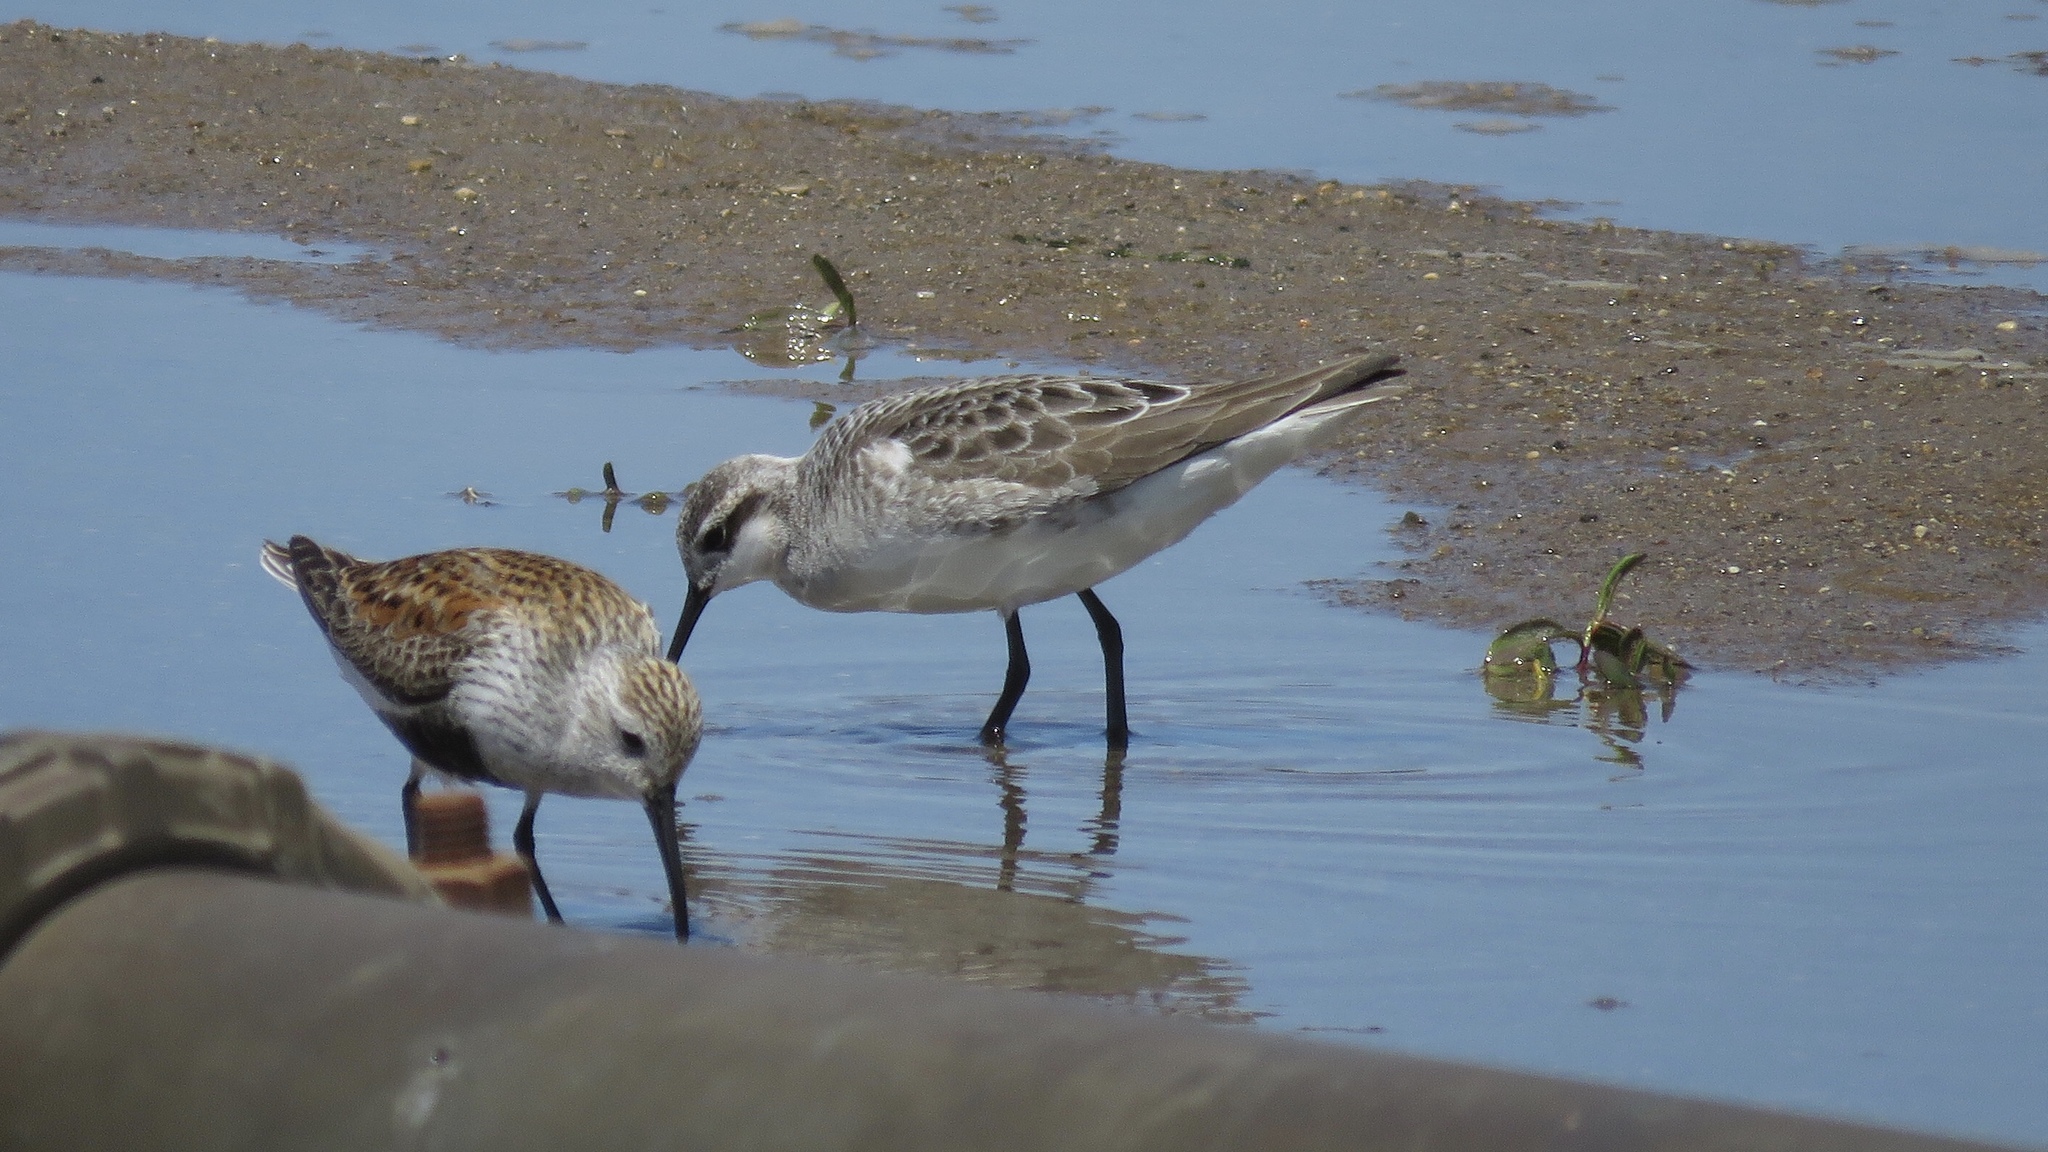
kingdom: Animalia
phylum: Chordata
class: Aves
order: Charadriiformes
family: Scolopacidae
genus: Phalaropus
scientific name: Phalaropus tricolor
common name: Wilson's phalarope
